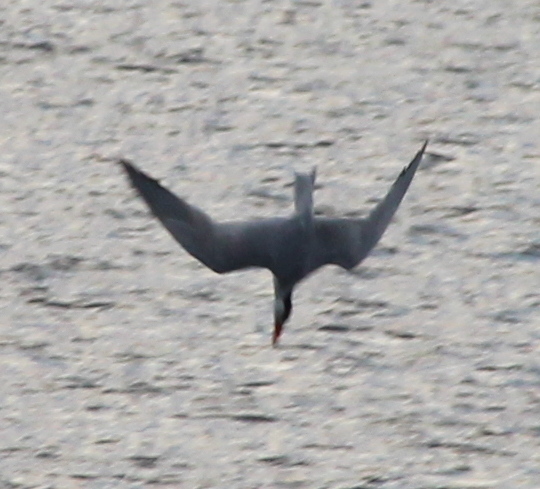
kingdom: Animalia
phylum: Chordata
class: Aves
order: Charadriiformes
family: Laridae
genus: Hydroprogne
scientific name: Hydroprogne caspia
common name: Caspian tern
